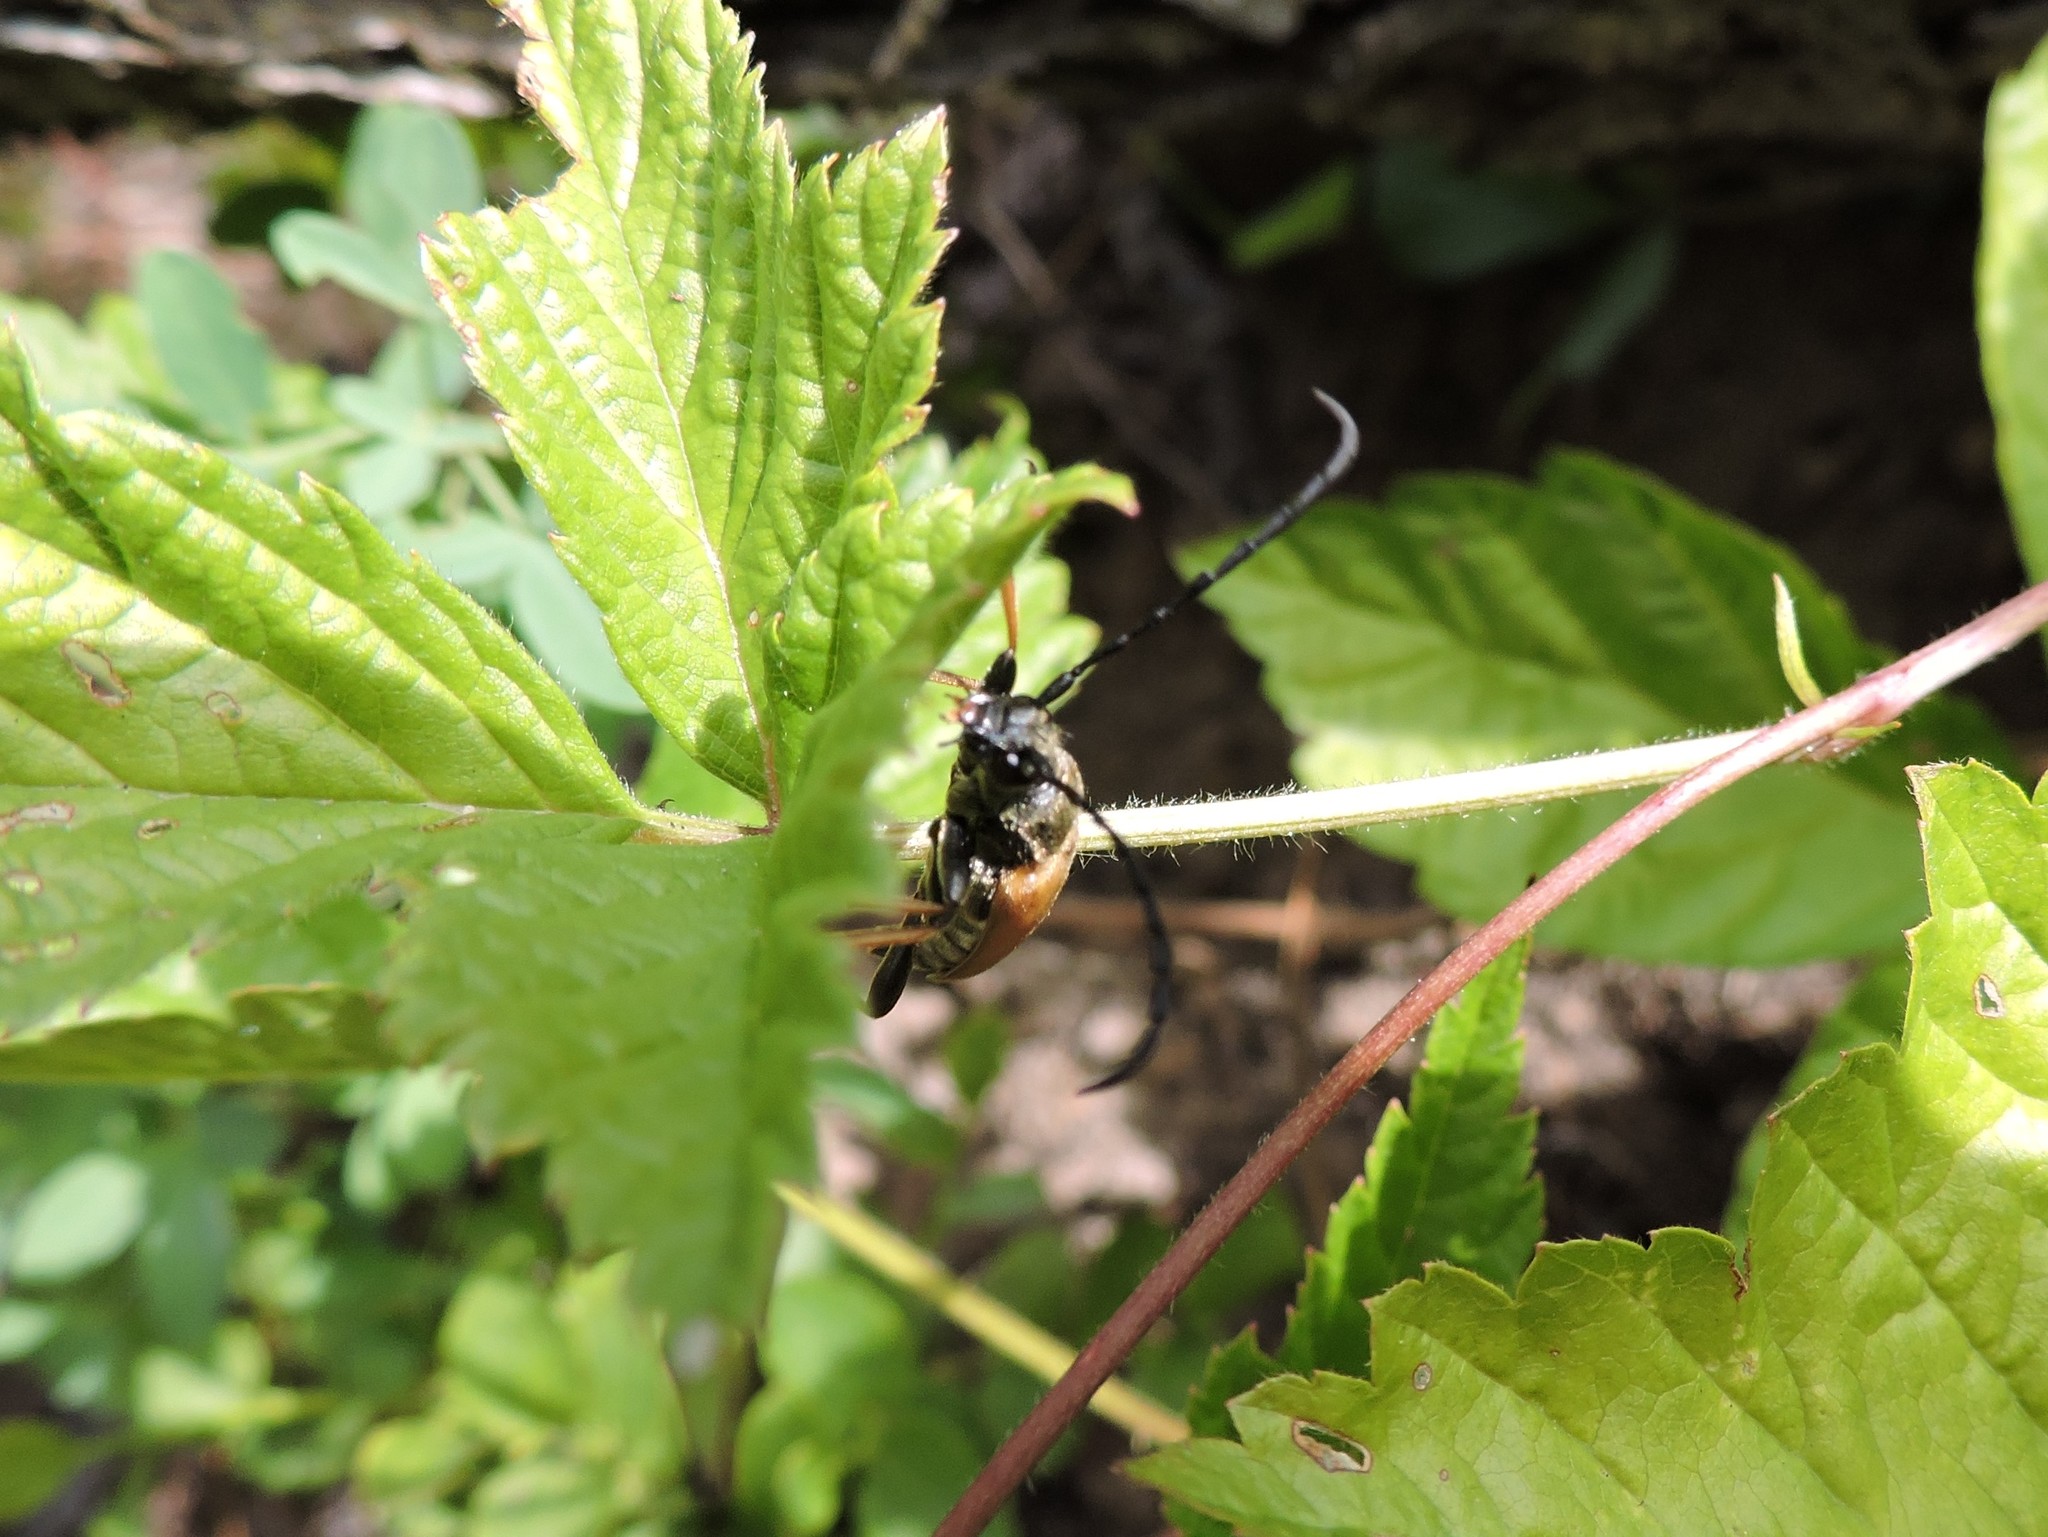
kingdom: Animalia
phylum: Arthropoda
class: Insecta
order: Coleoptera
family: Cerambycidae
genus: Stictoleptura
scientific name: Stictoleptura rubra
